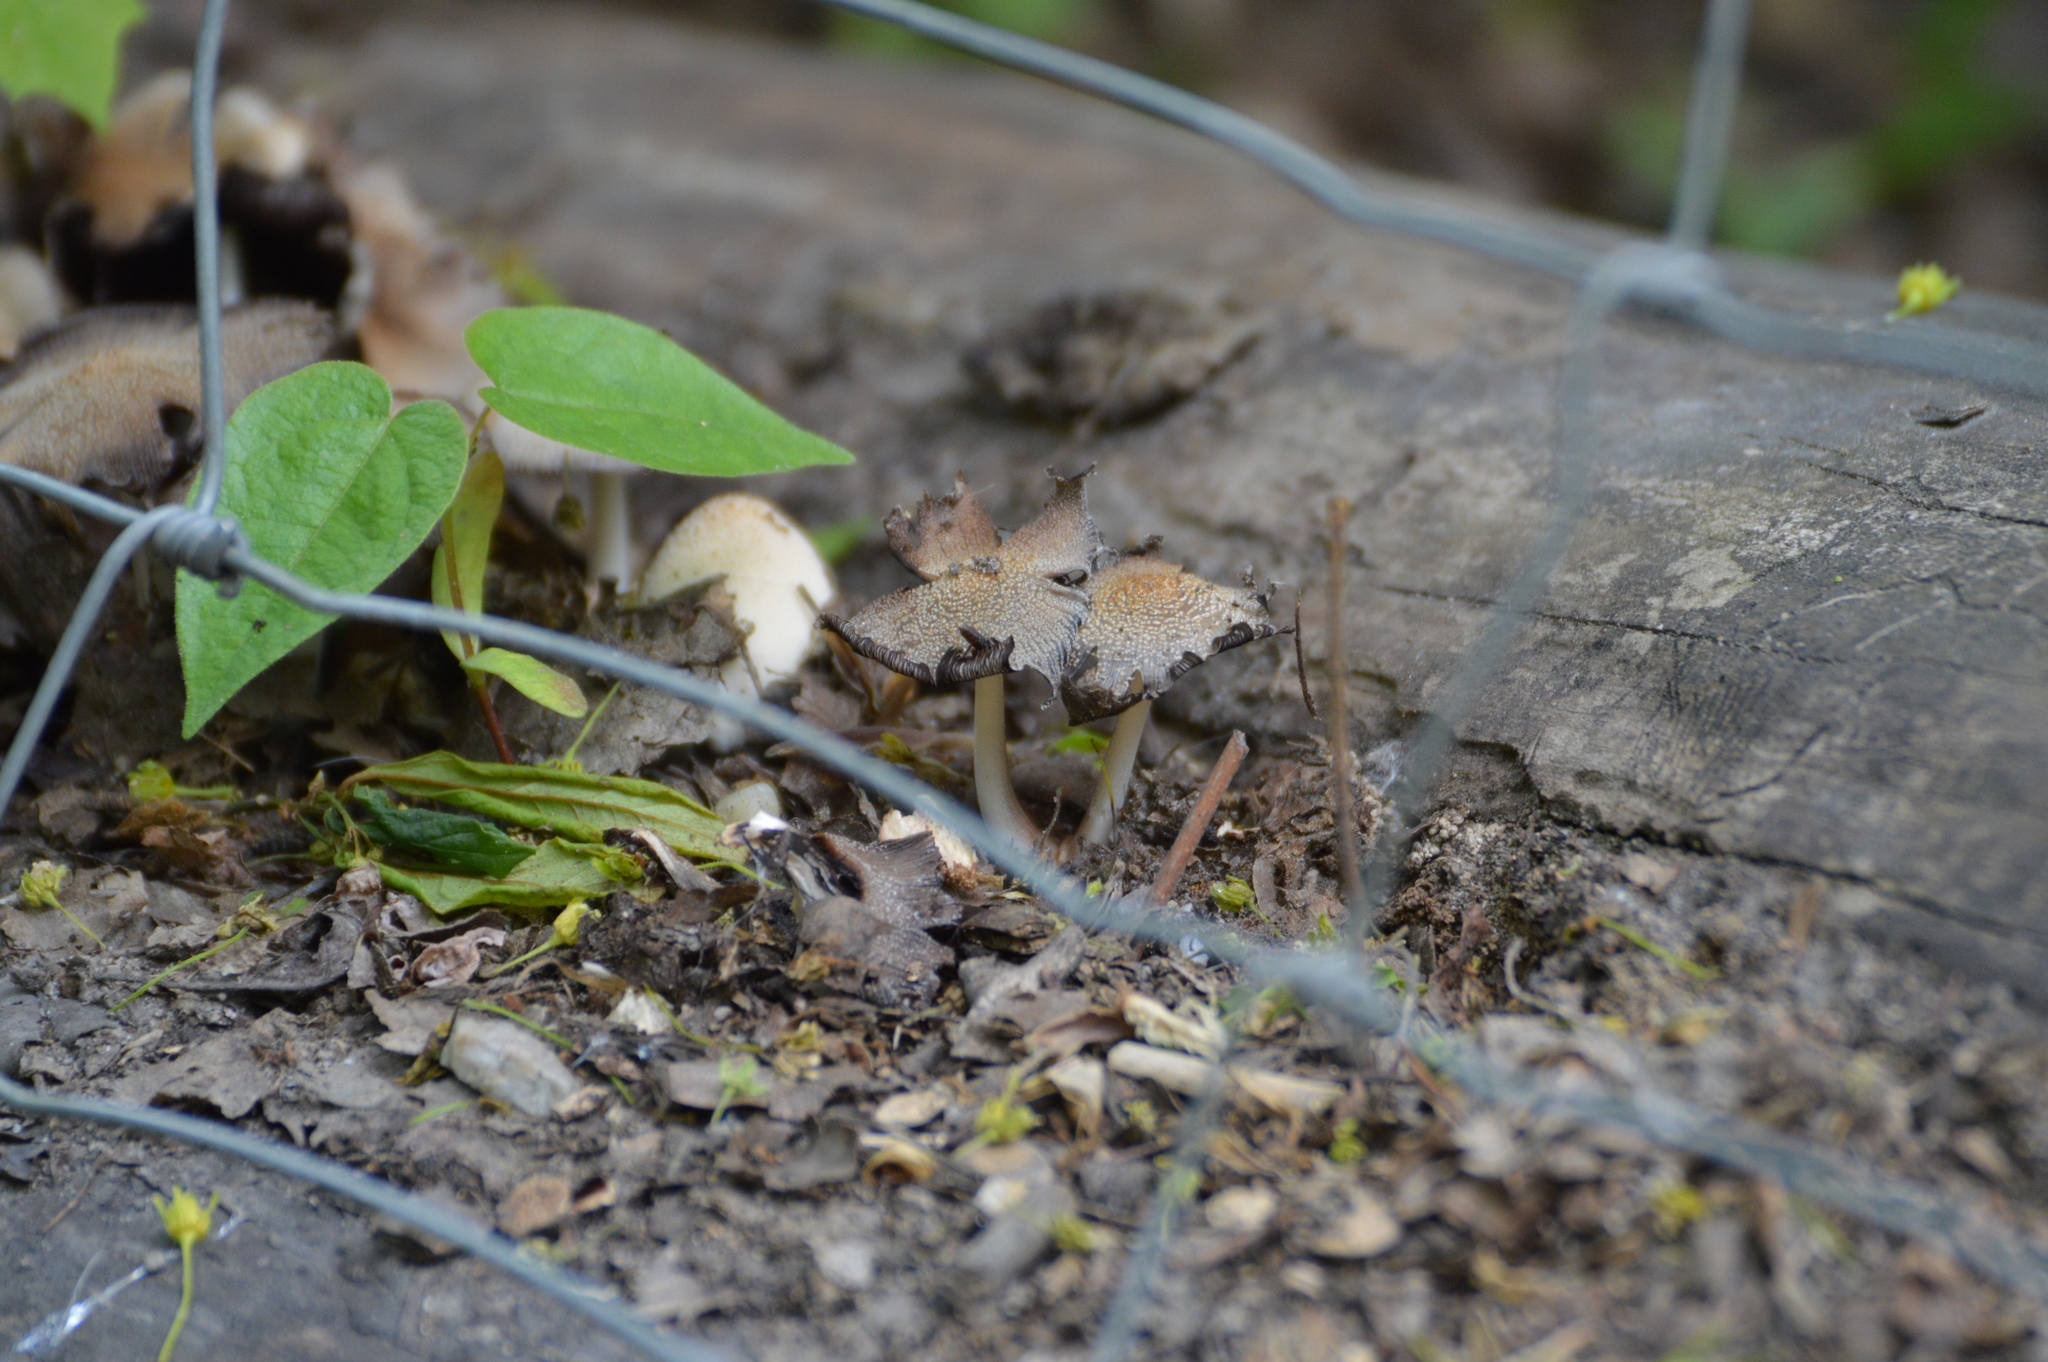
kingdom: Fungi
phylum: Basidiomycota
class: Agaricomycetes
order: Agaricales
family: Psathyrellaceae
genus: Coprinellus
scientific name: Coprinellus domesticus
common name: Firerug inkcap
